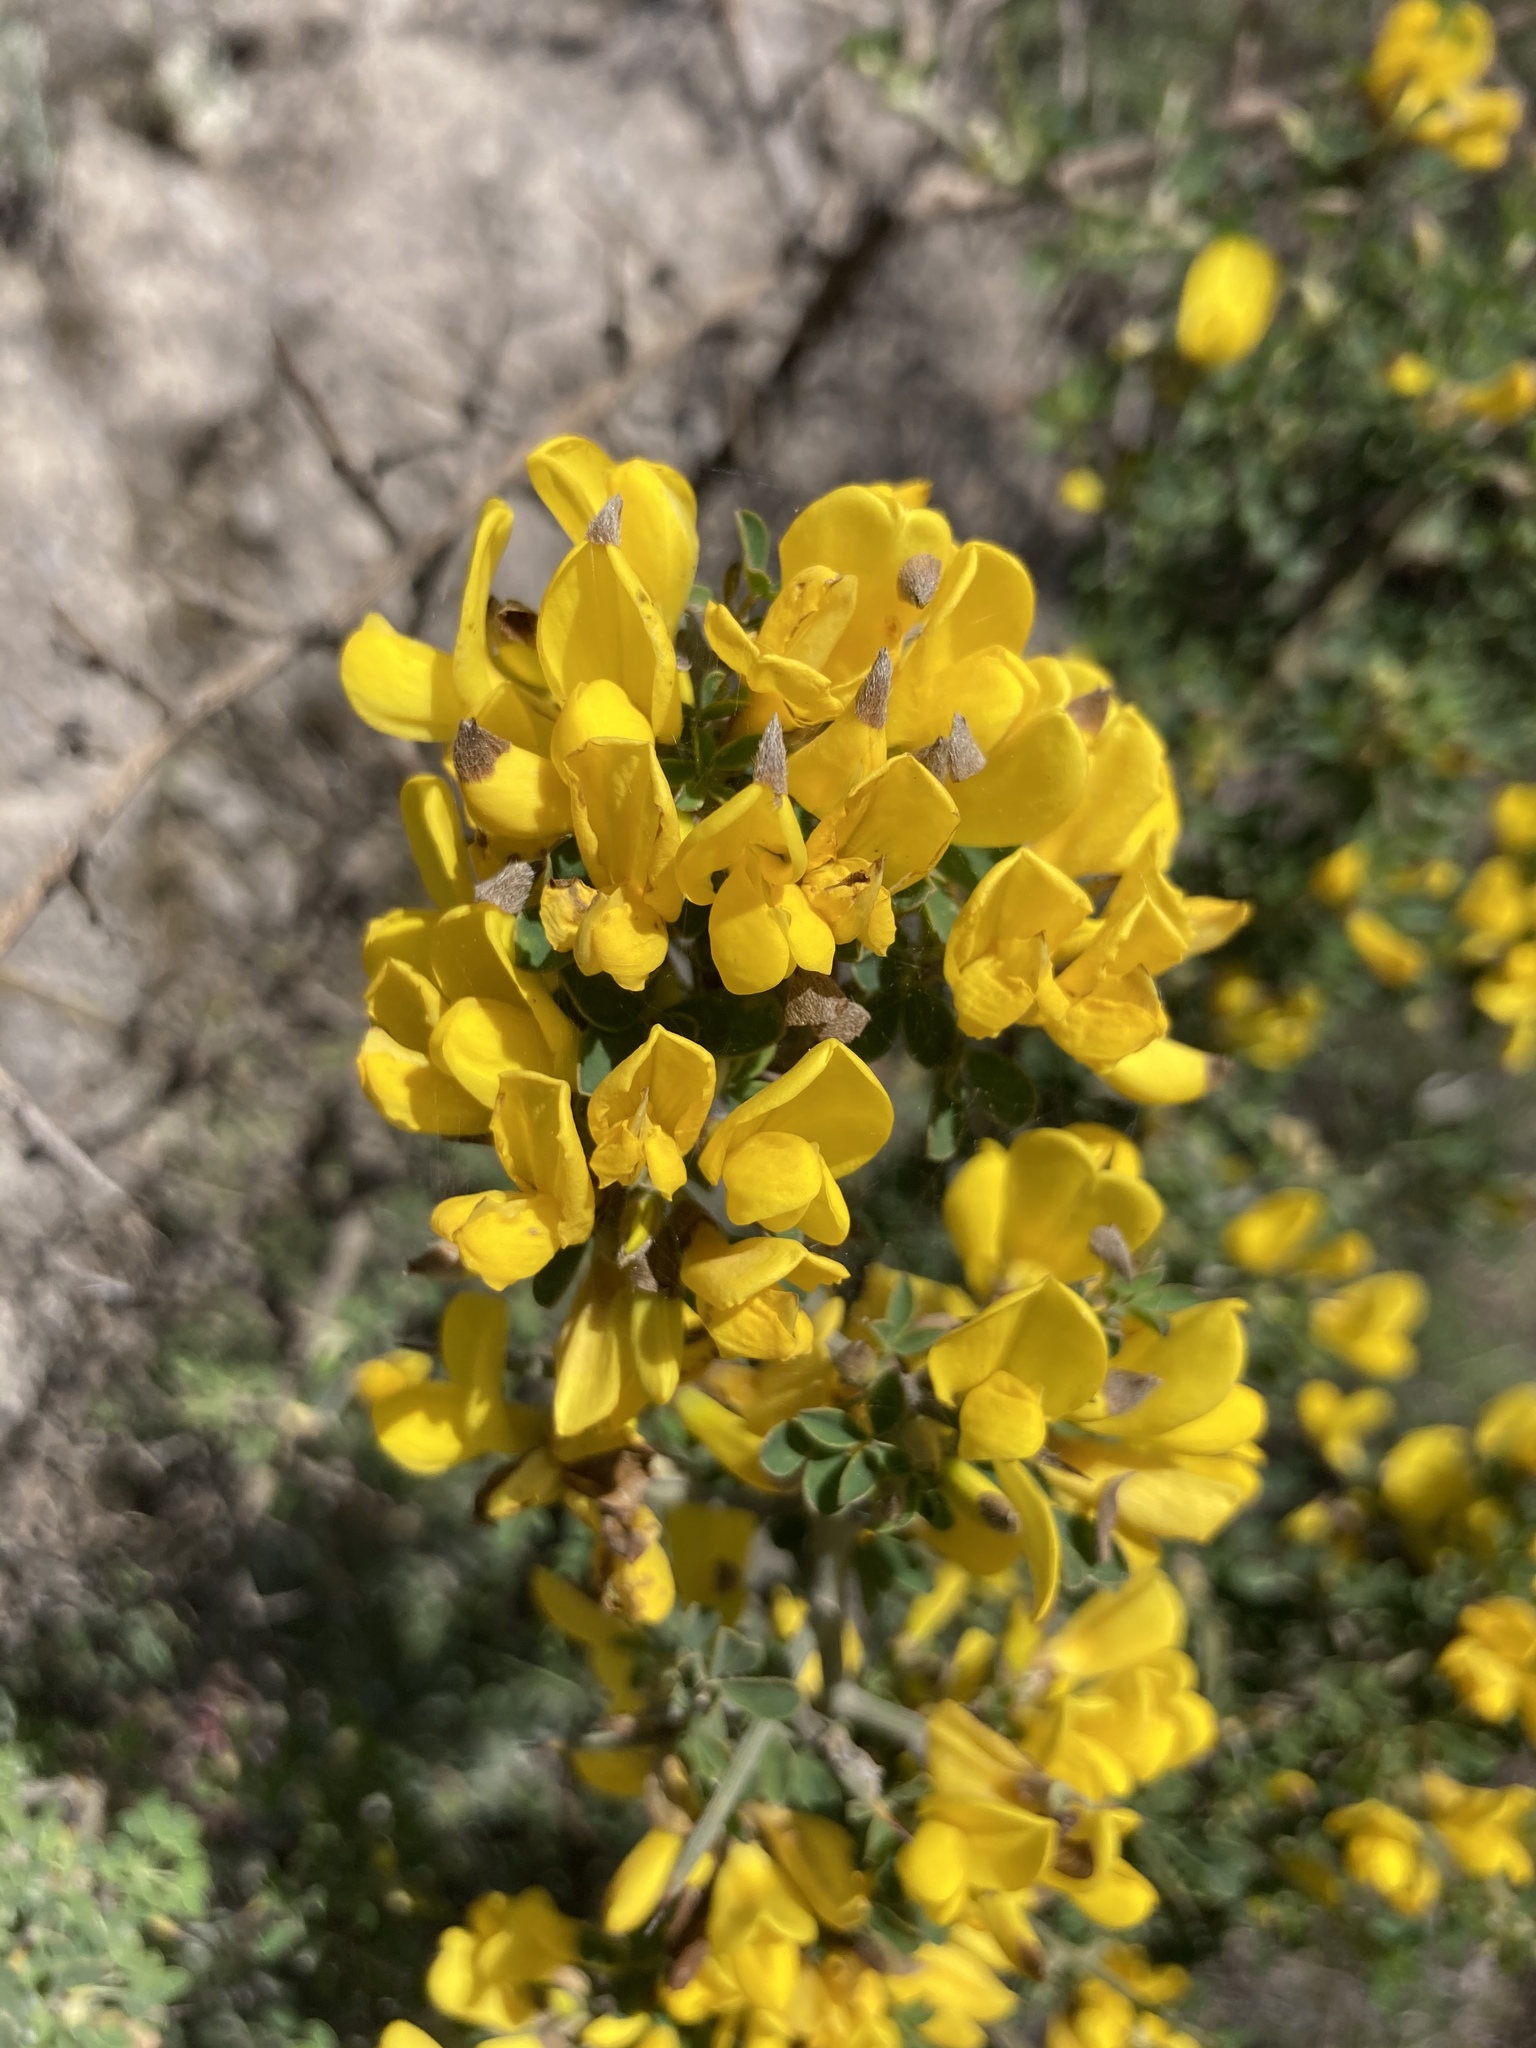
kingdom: Plantae
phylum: Tracheophyta
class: Magnoliopsida
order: Fabales
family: Fabaceae
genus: Calicotome
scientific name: Calicotome villosa
